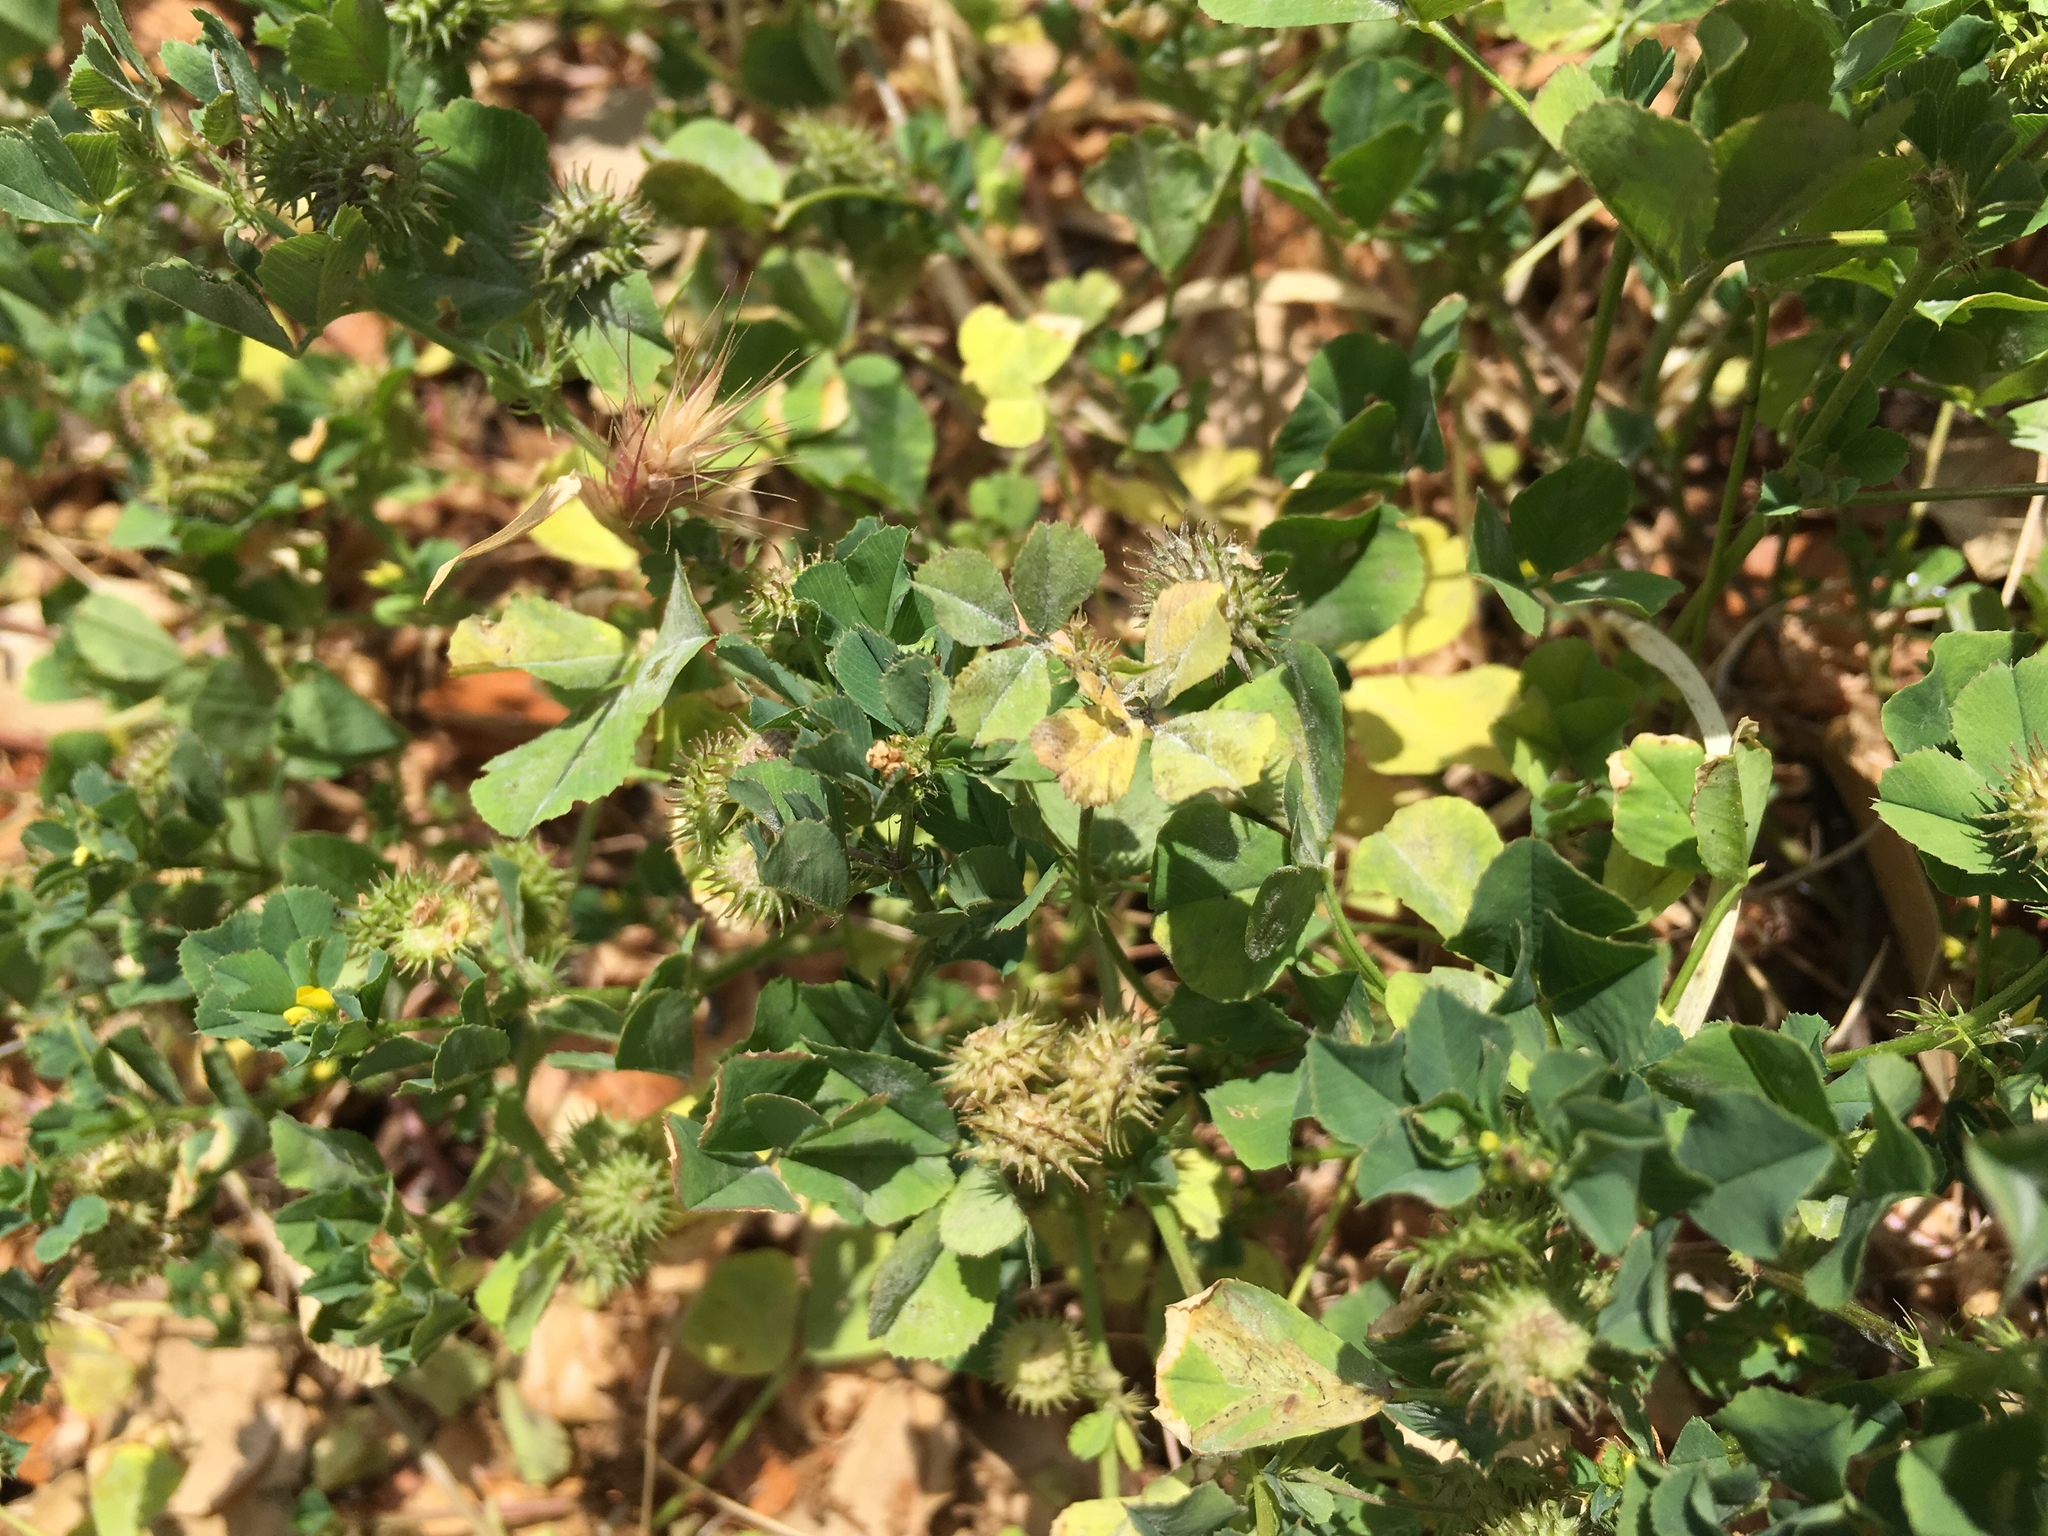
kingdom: Plantae
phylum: Tracheophyta
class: Magnoliopsida
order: Fabales
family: Fabaceae
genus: Medicago
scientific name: Medicago polymorpha
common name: Burclover
